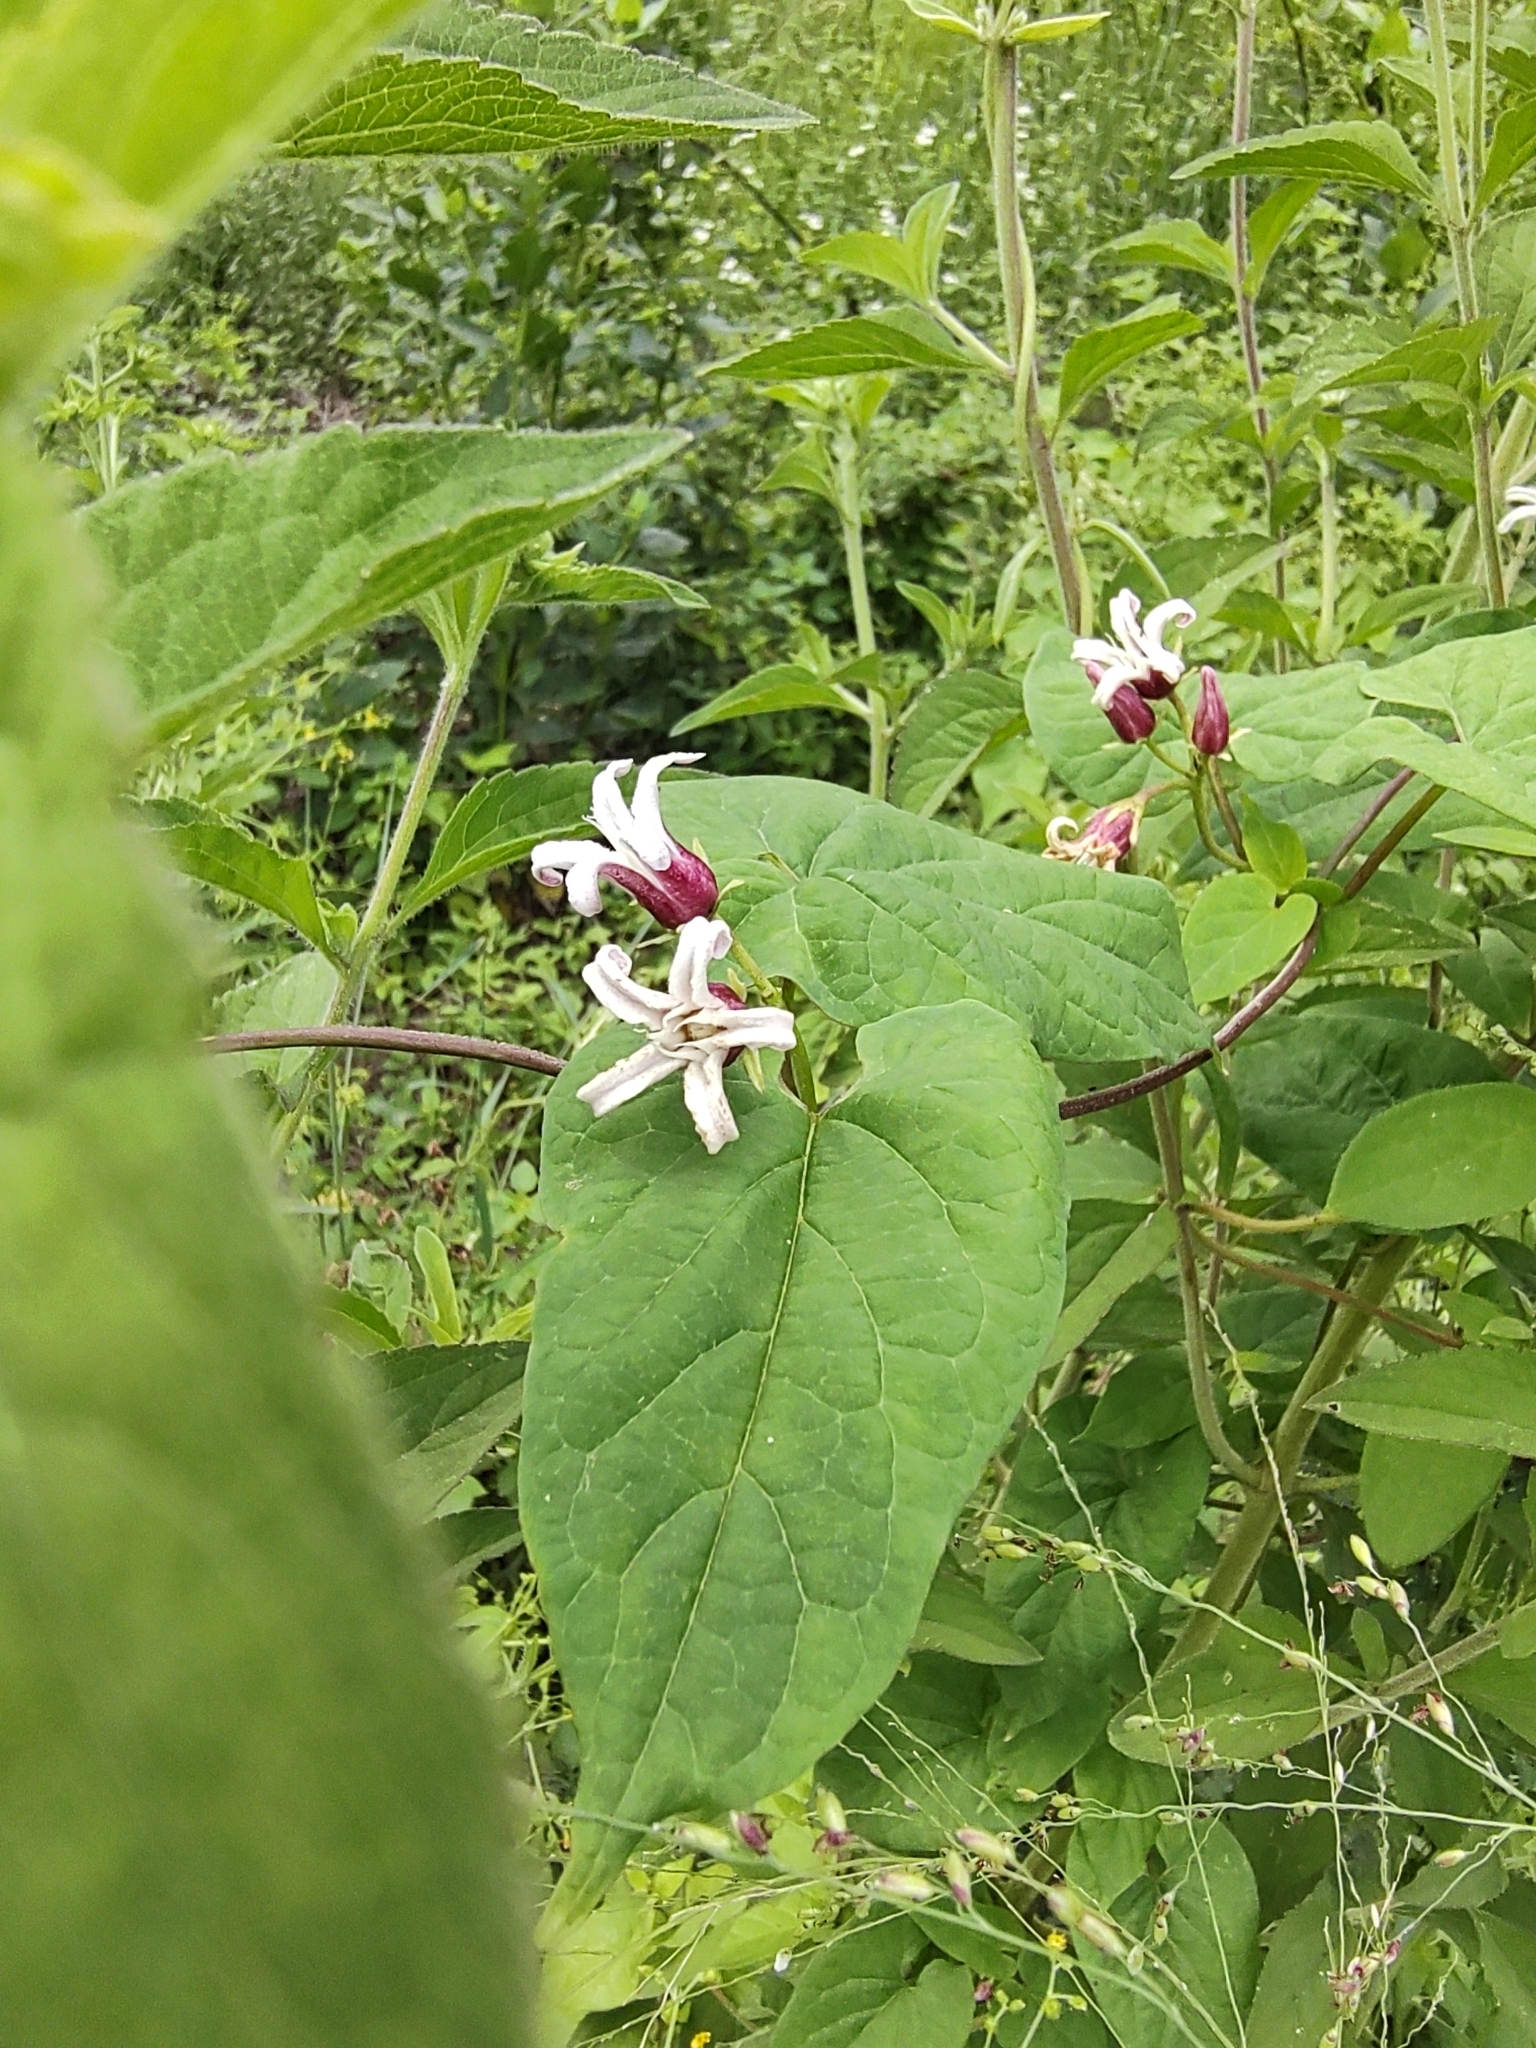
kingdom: Plantae
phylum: Tracheophyta
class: Magnoliopsida
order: Gentianales
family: Apocynaceae
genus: Cynanchum
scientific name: Cynanchum ligulatum
